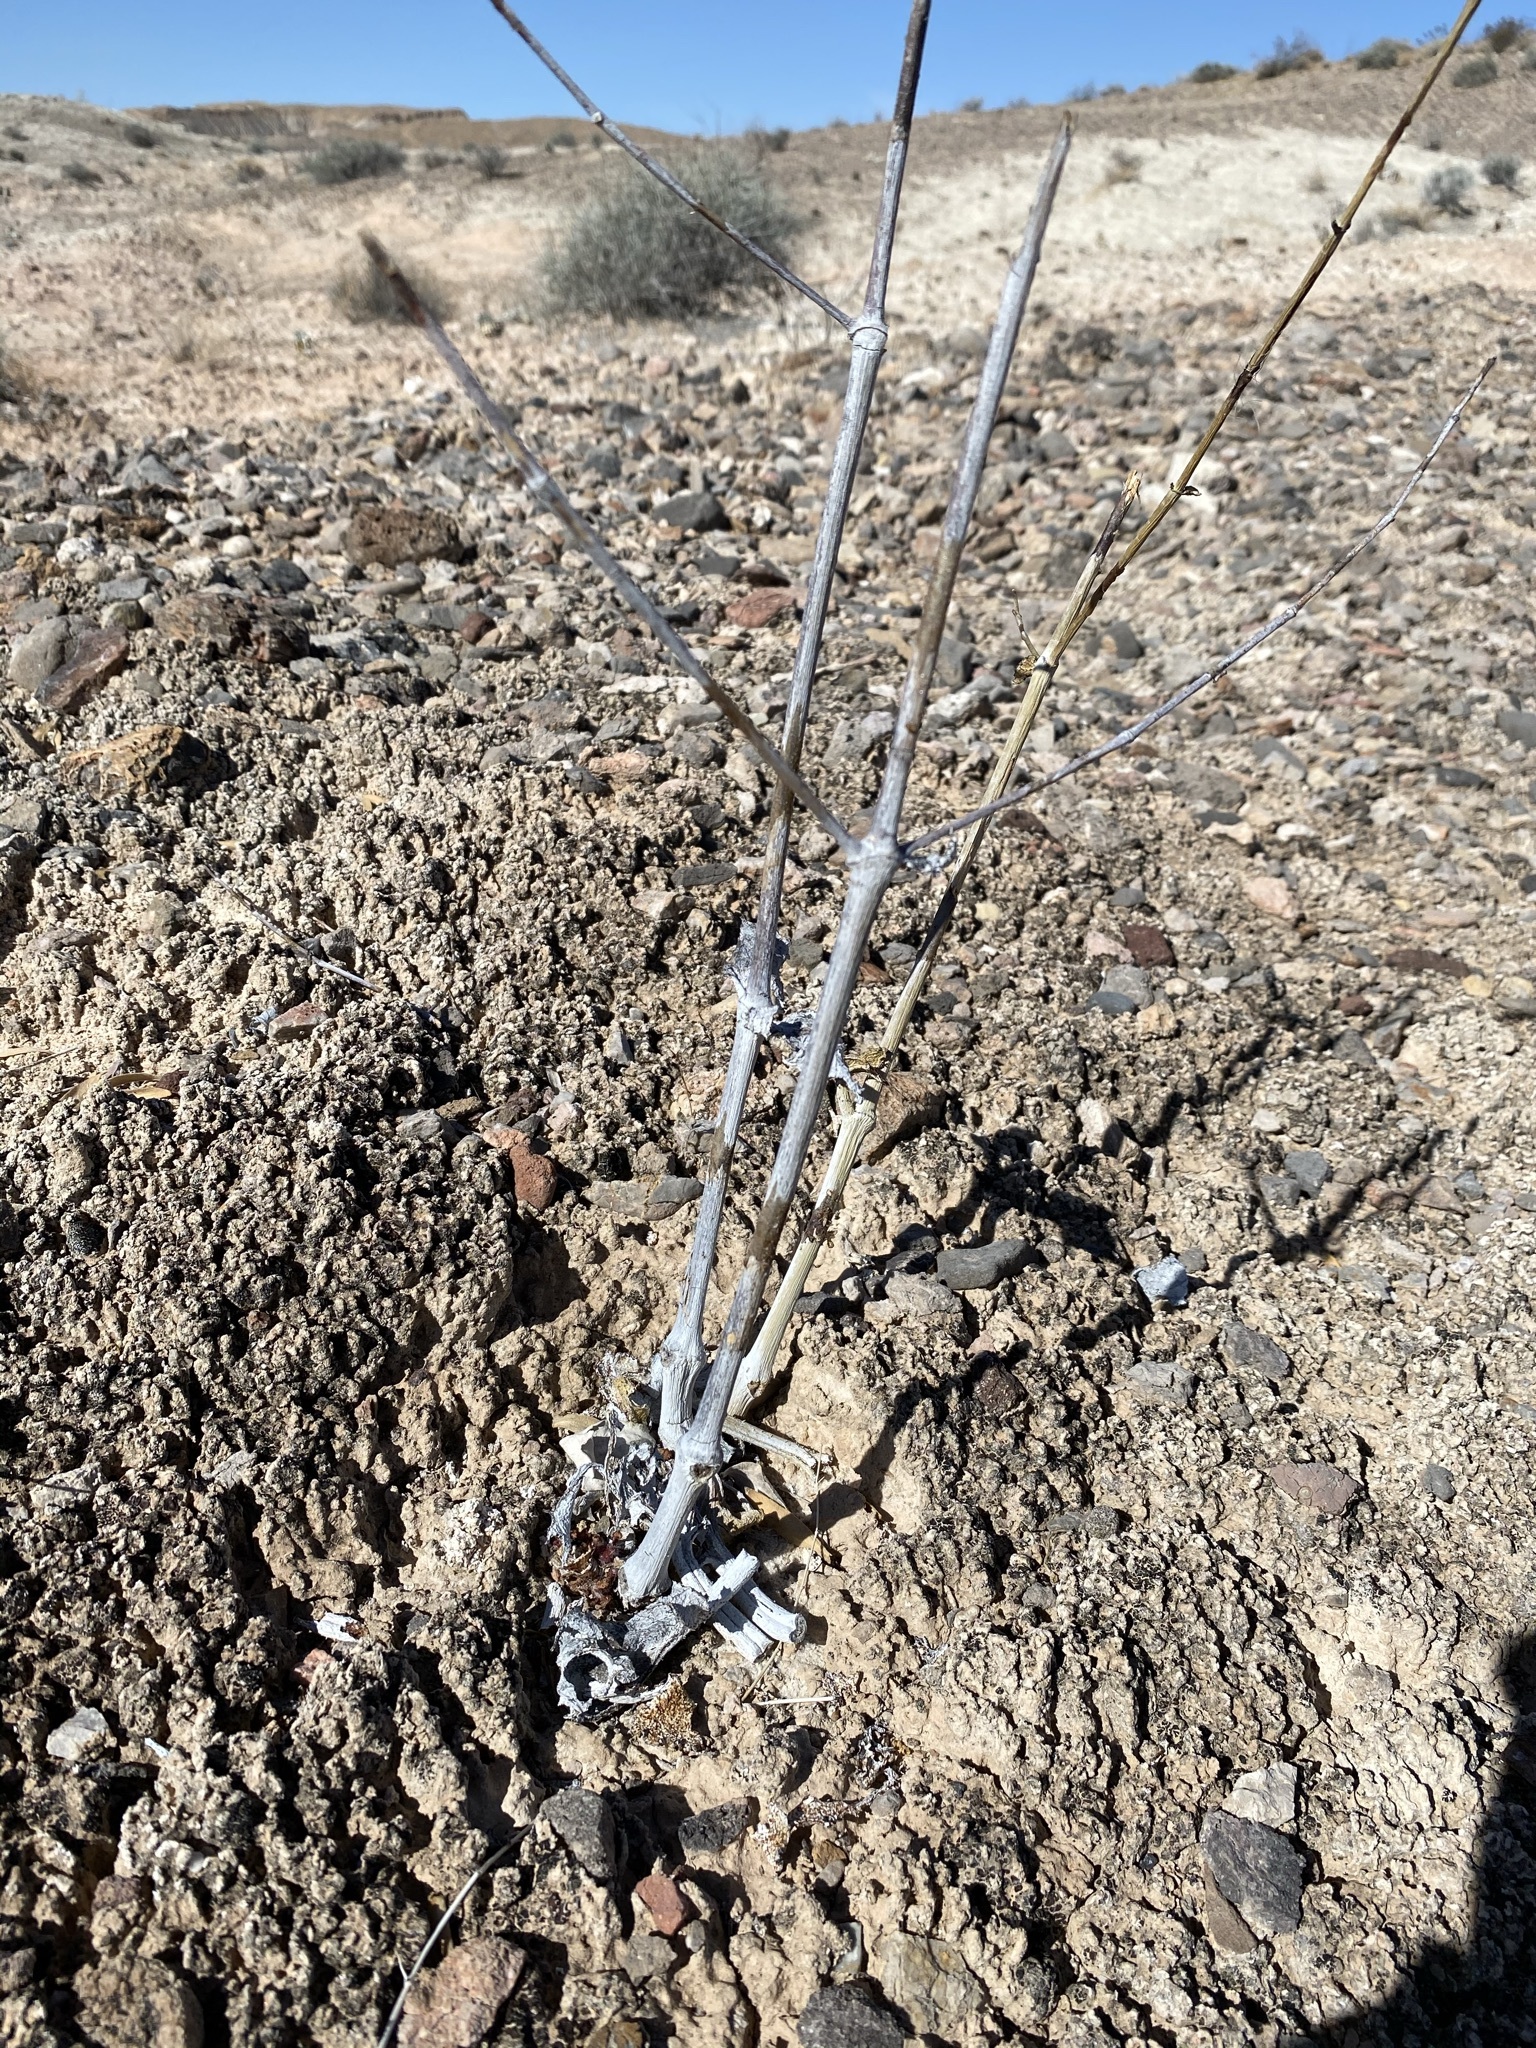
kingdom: Plantae
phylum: Tracheophyta
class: Magnoliopsida
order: Caryophyllales
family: Nyctaginaceae
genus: Anulocaulis
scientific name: Anulocaulis leiosolenus
